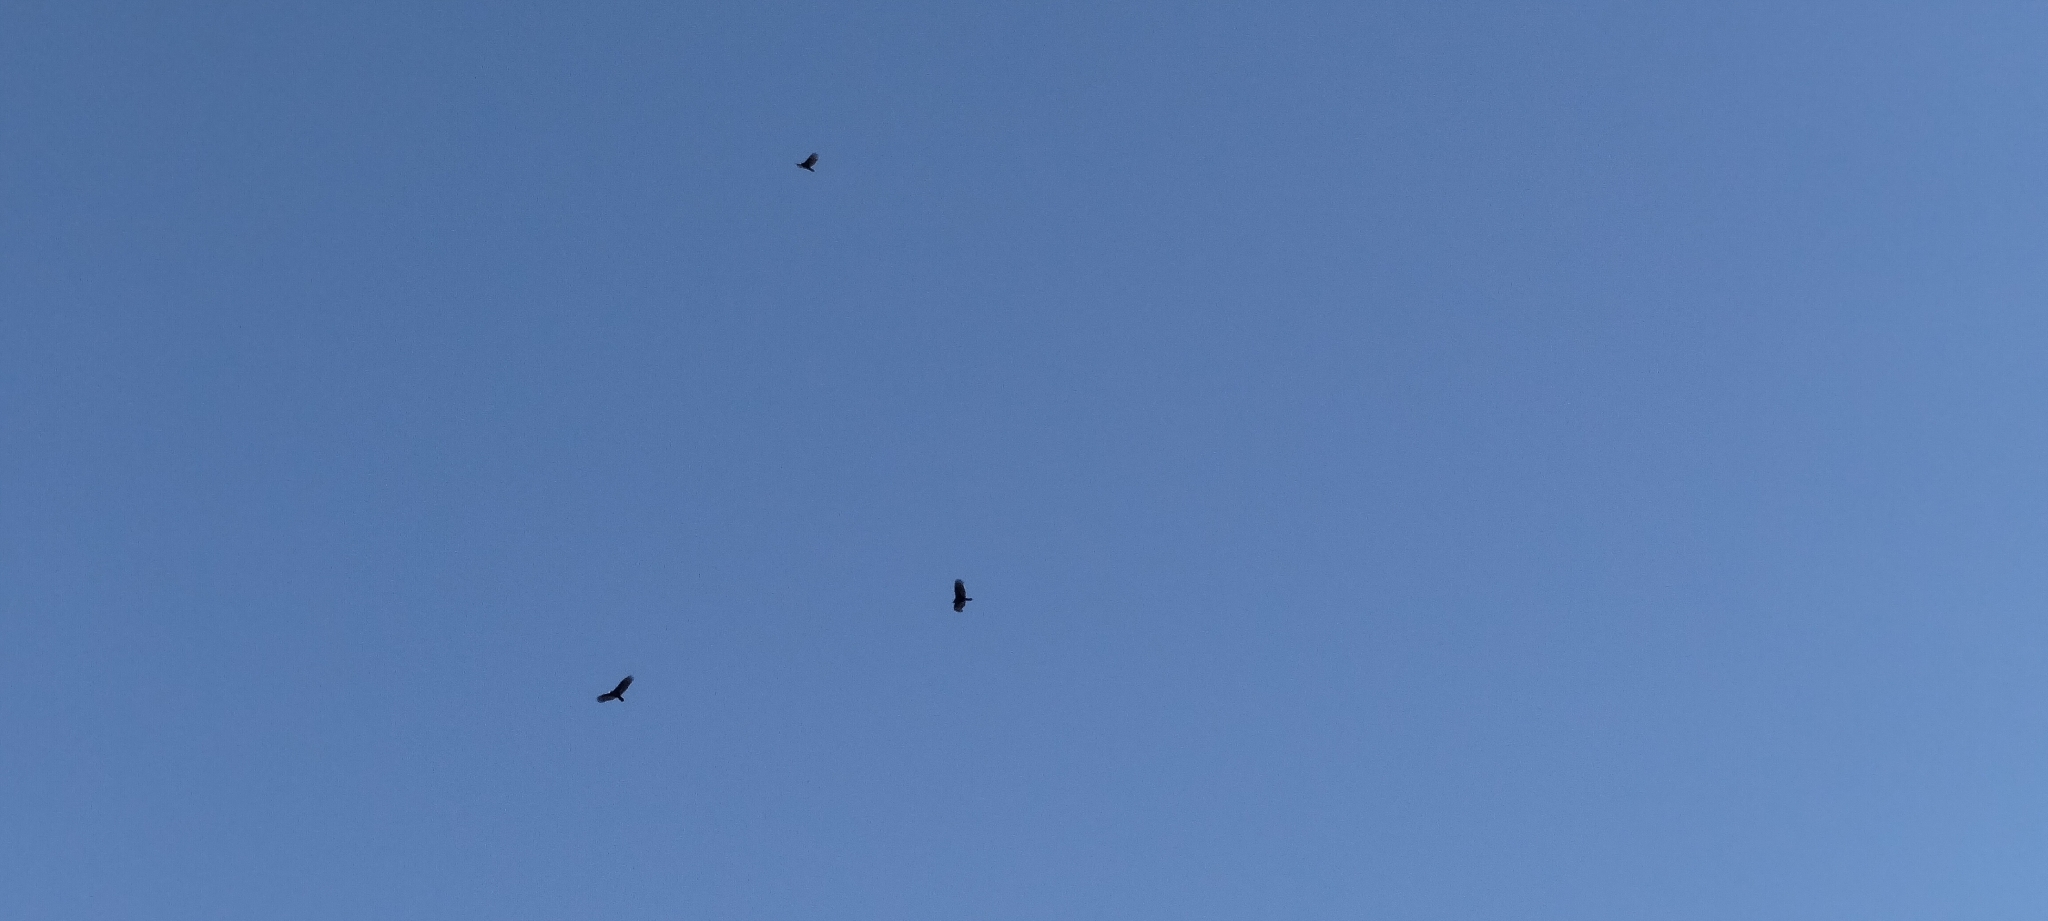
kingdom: Animalia
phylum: Chordata
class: Aves
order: Accipitriformes
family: Cathartidae
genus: Cathartes
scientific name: Cathartes aura
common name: Turkey vulture
